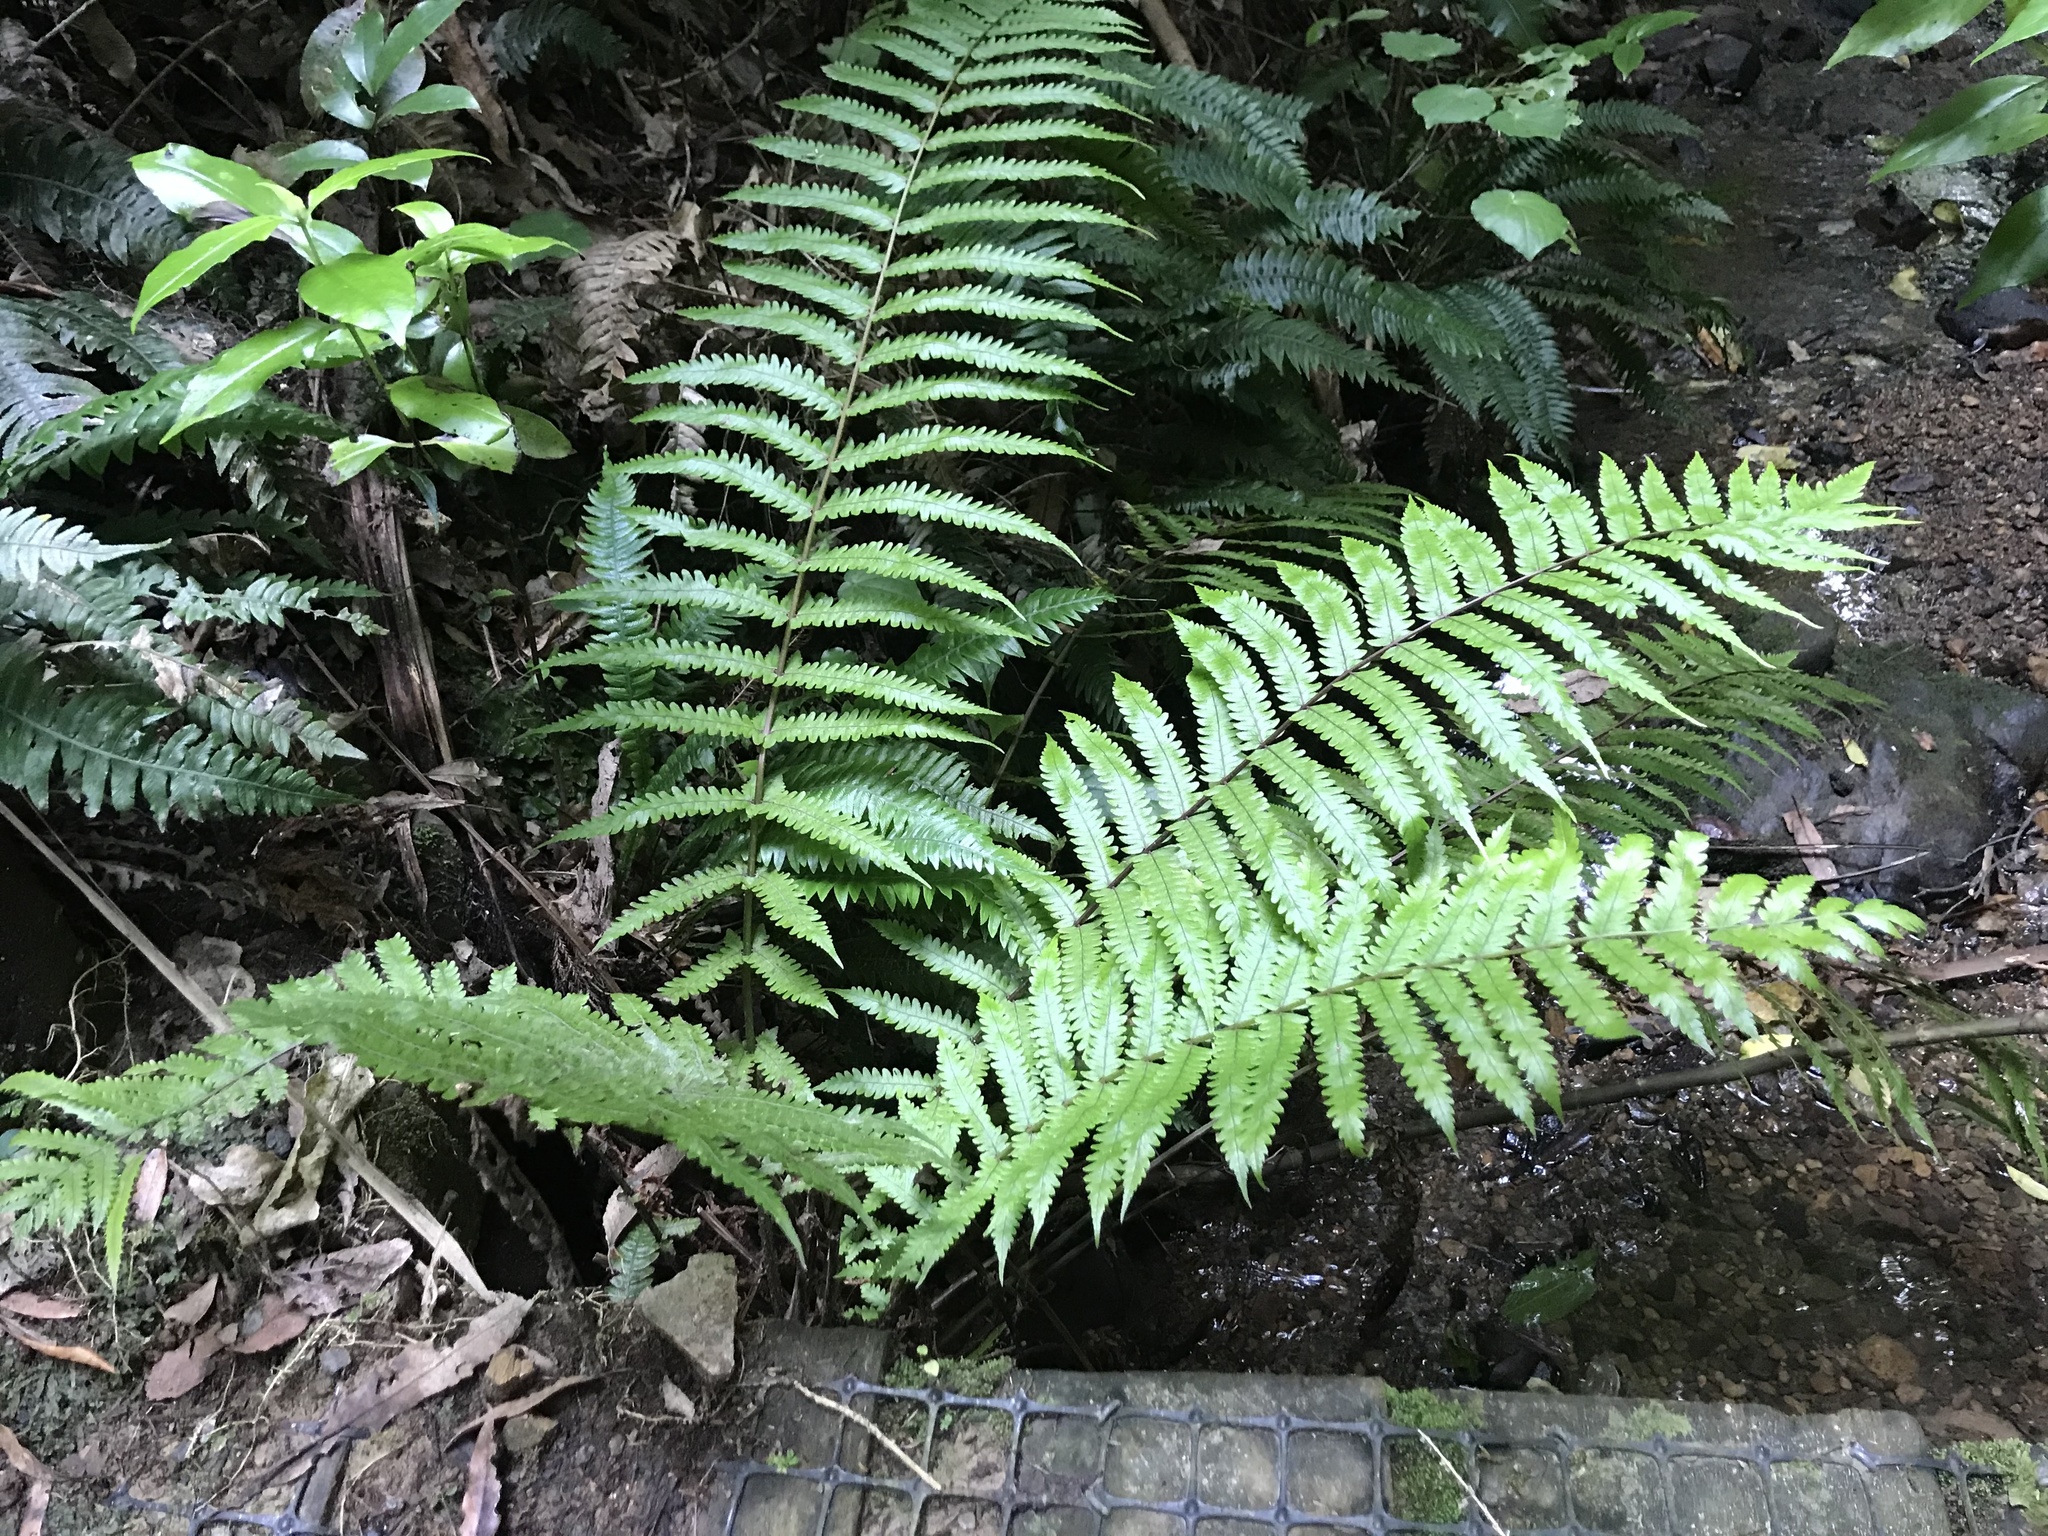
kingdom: Plantae
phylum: Tracheophyta
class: Polypodiopsida
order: Polypodiales
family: Thelypteridaceae
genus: Pakau
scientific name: Pakau pennigera
